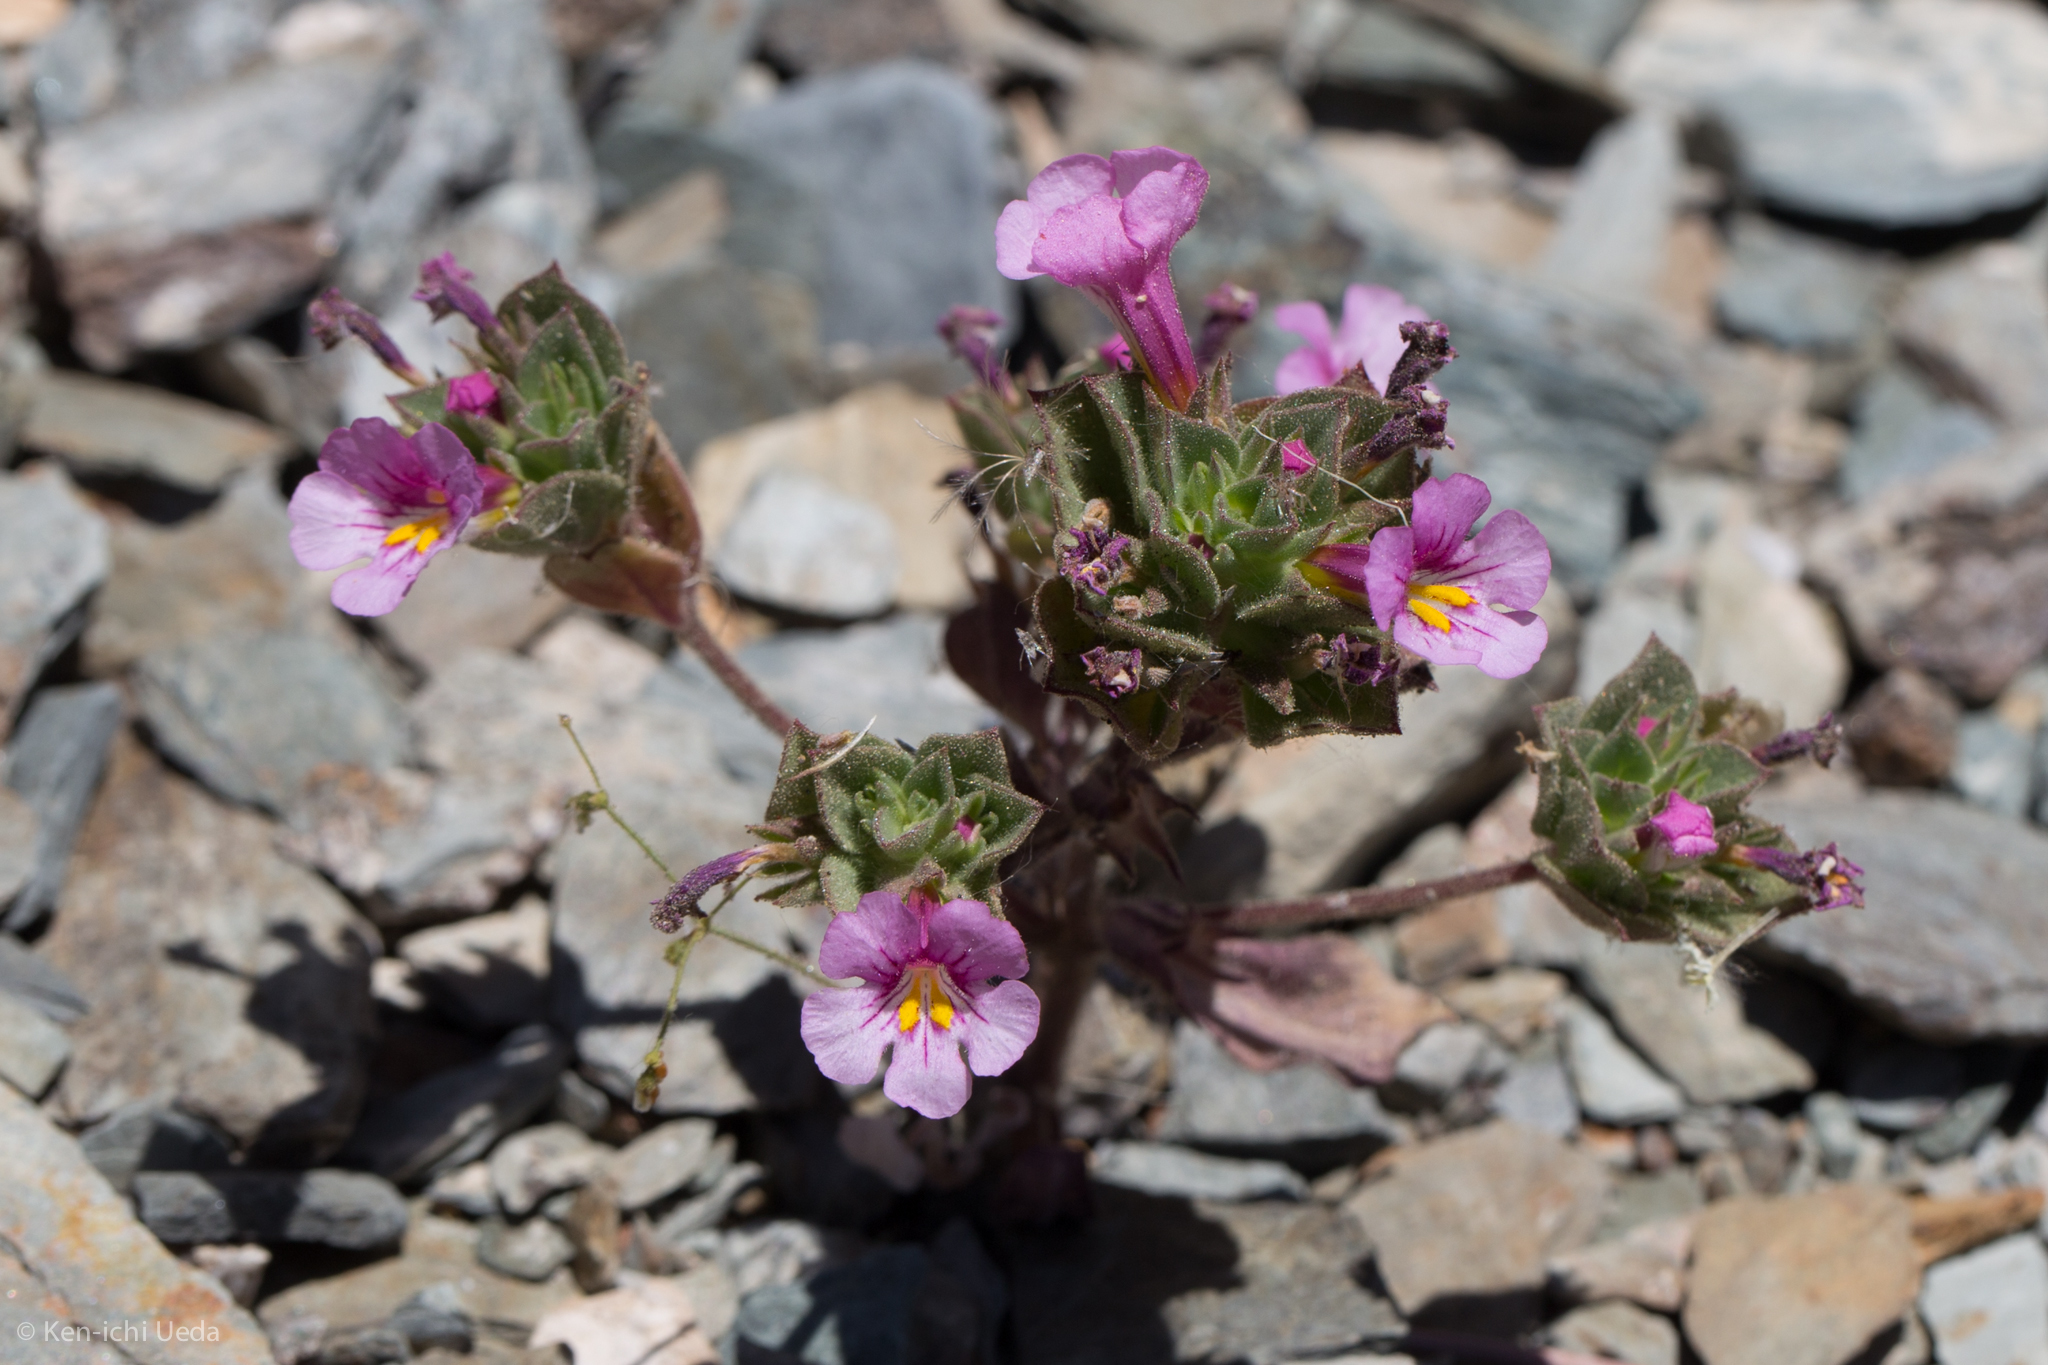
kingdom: Plantae
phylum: Tracheophyta
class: Magnoliopsida
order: Lamiales
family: Phrymaceae
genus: Diplacus
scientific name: Diplacus bigelovii
